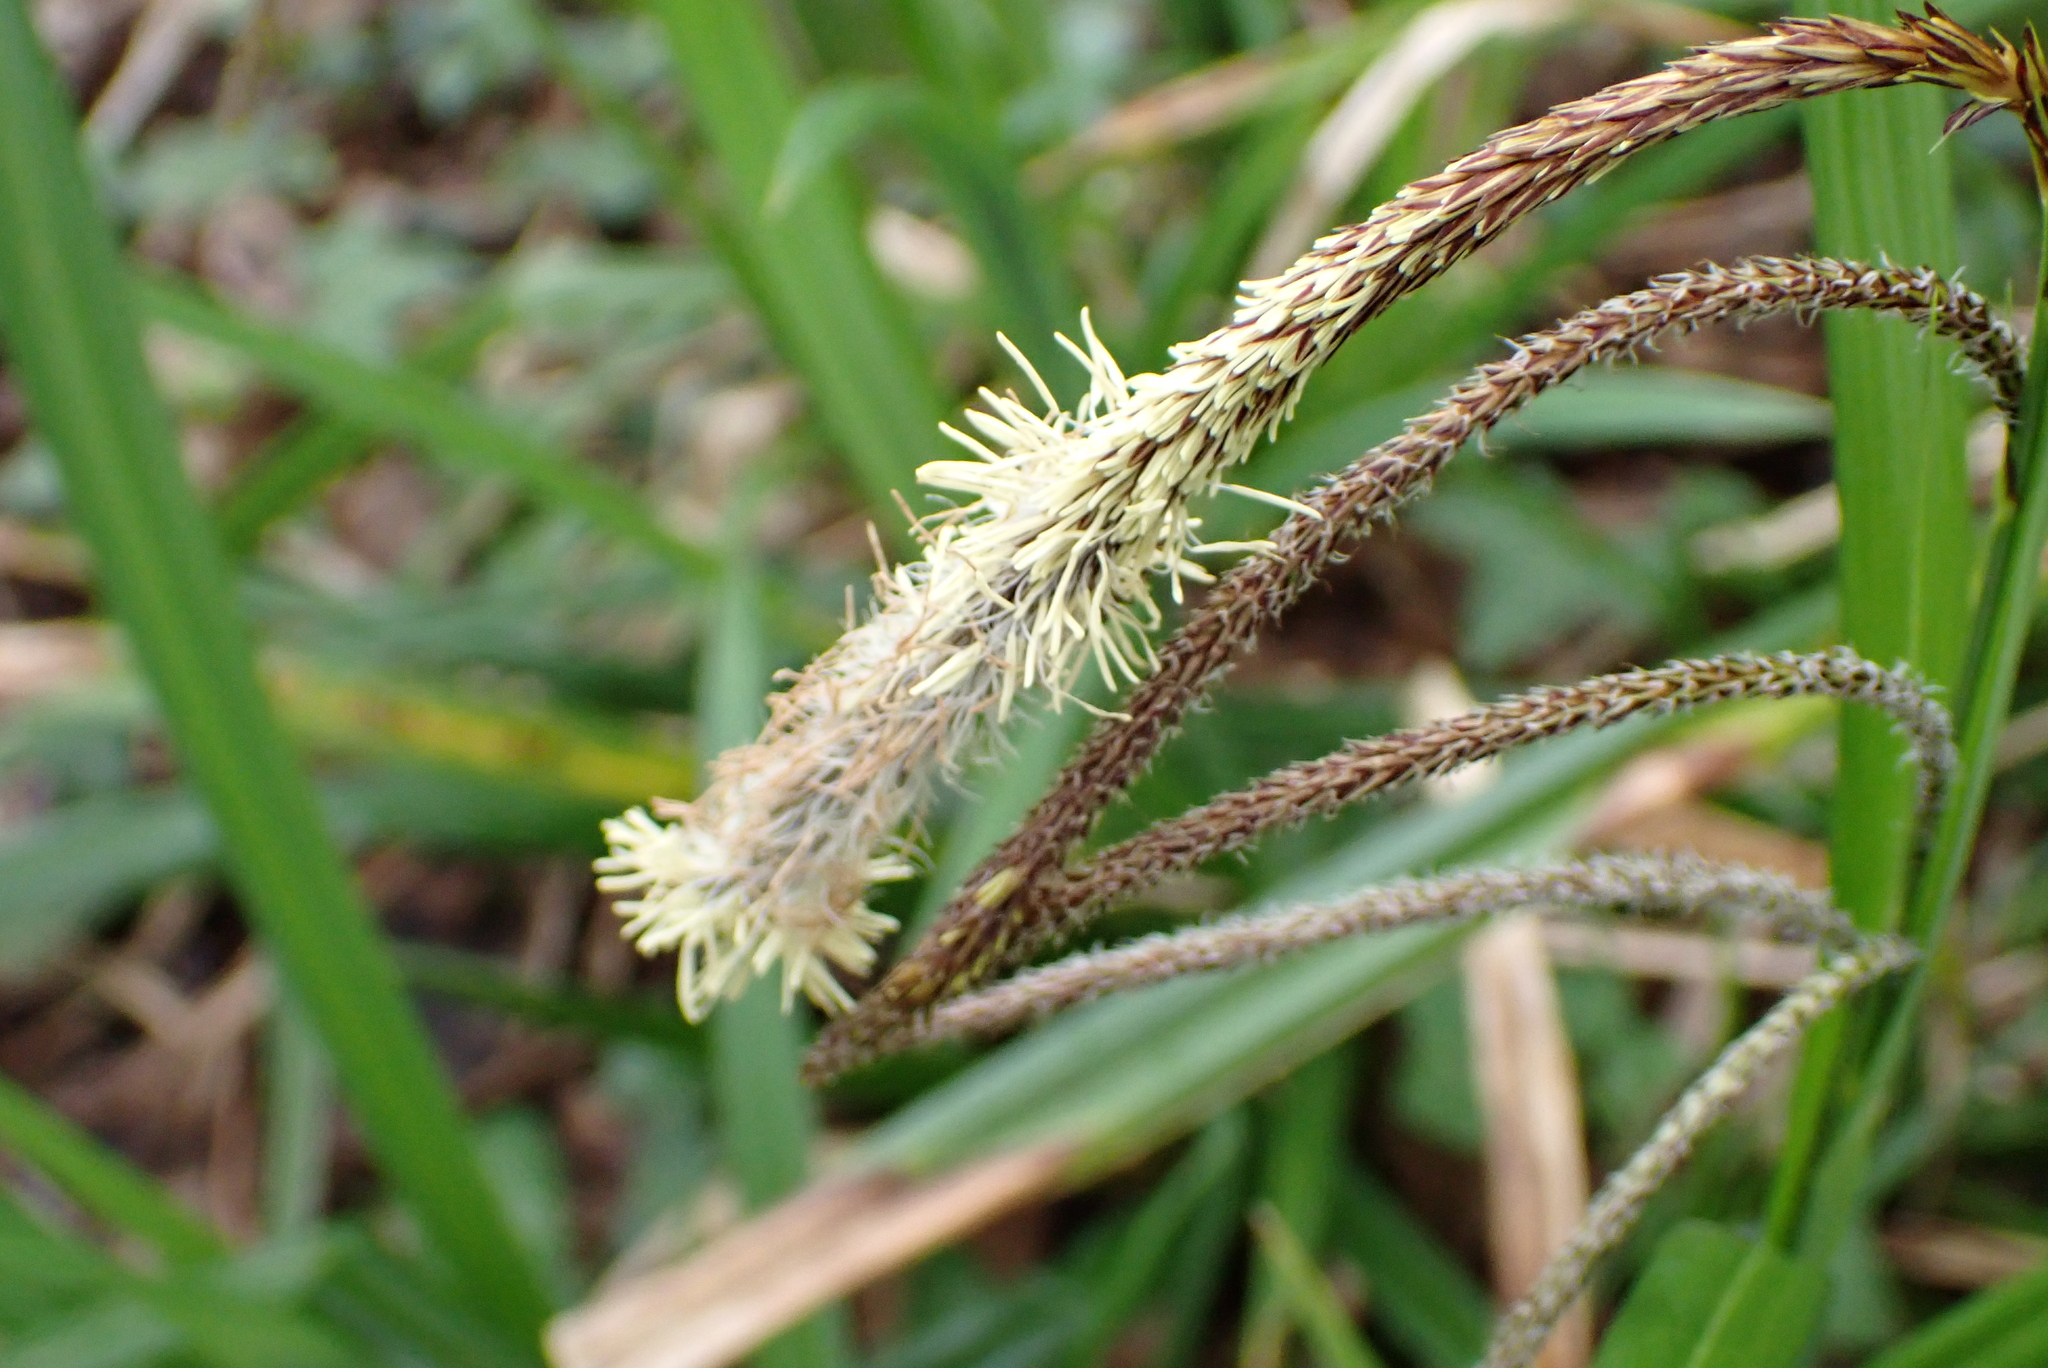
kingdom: Plantae
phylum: Tracheophyta
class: Liliopsida
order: Poales
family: Cyperaceae
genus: Carex
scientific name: Carex pendula
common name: Pendulous sedge
